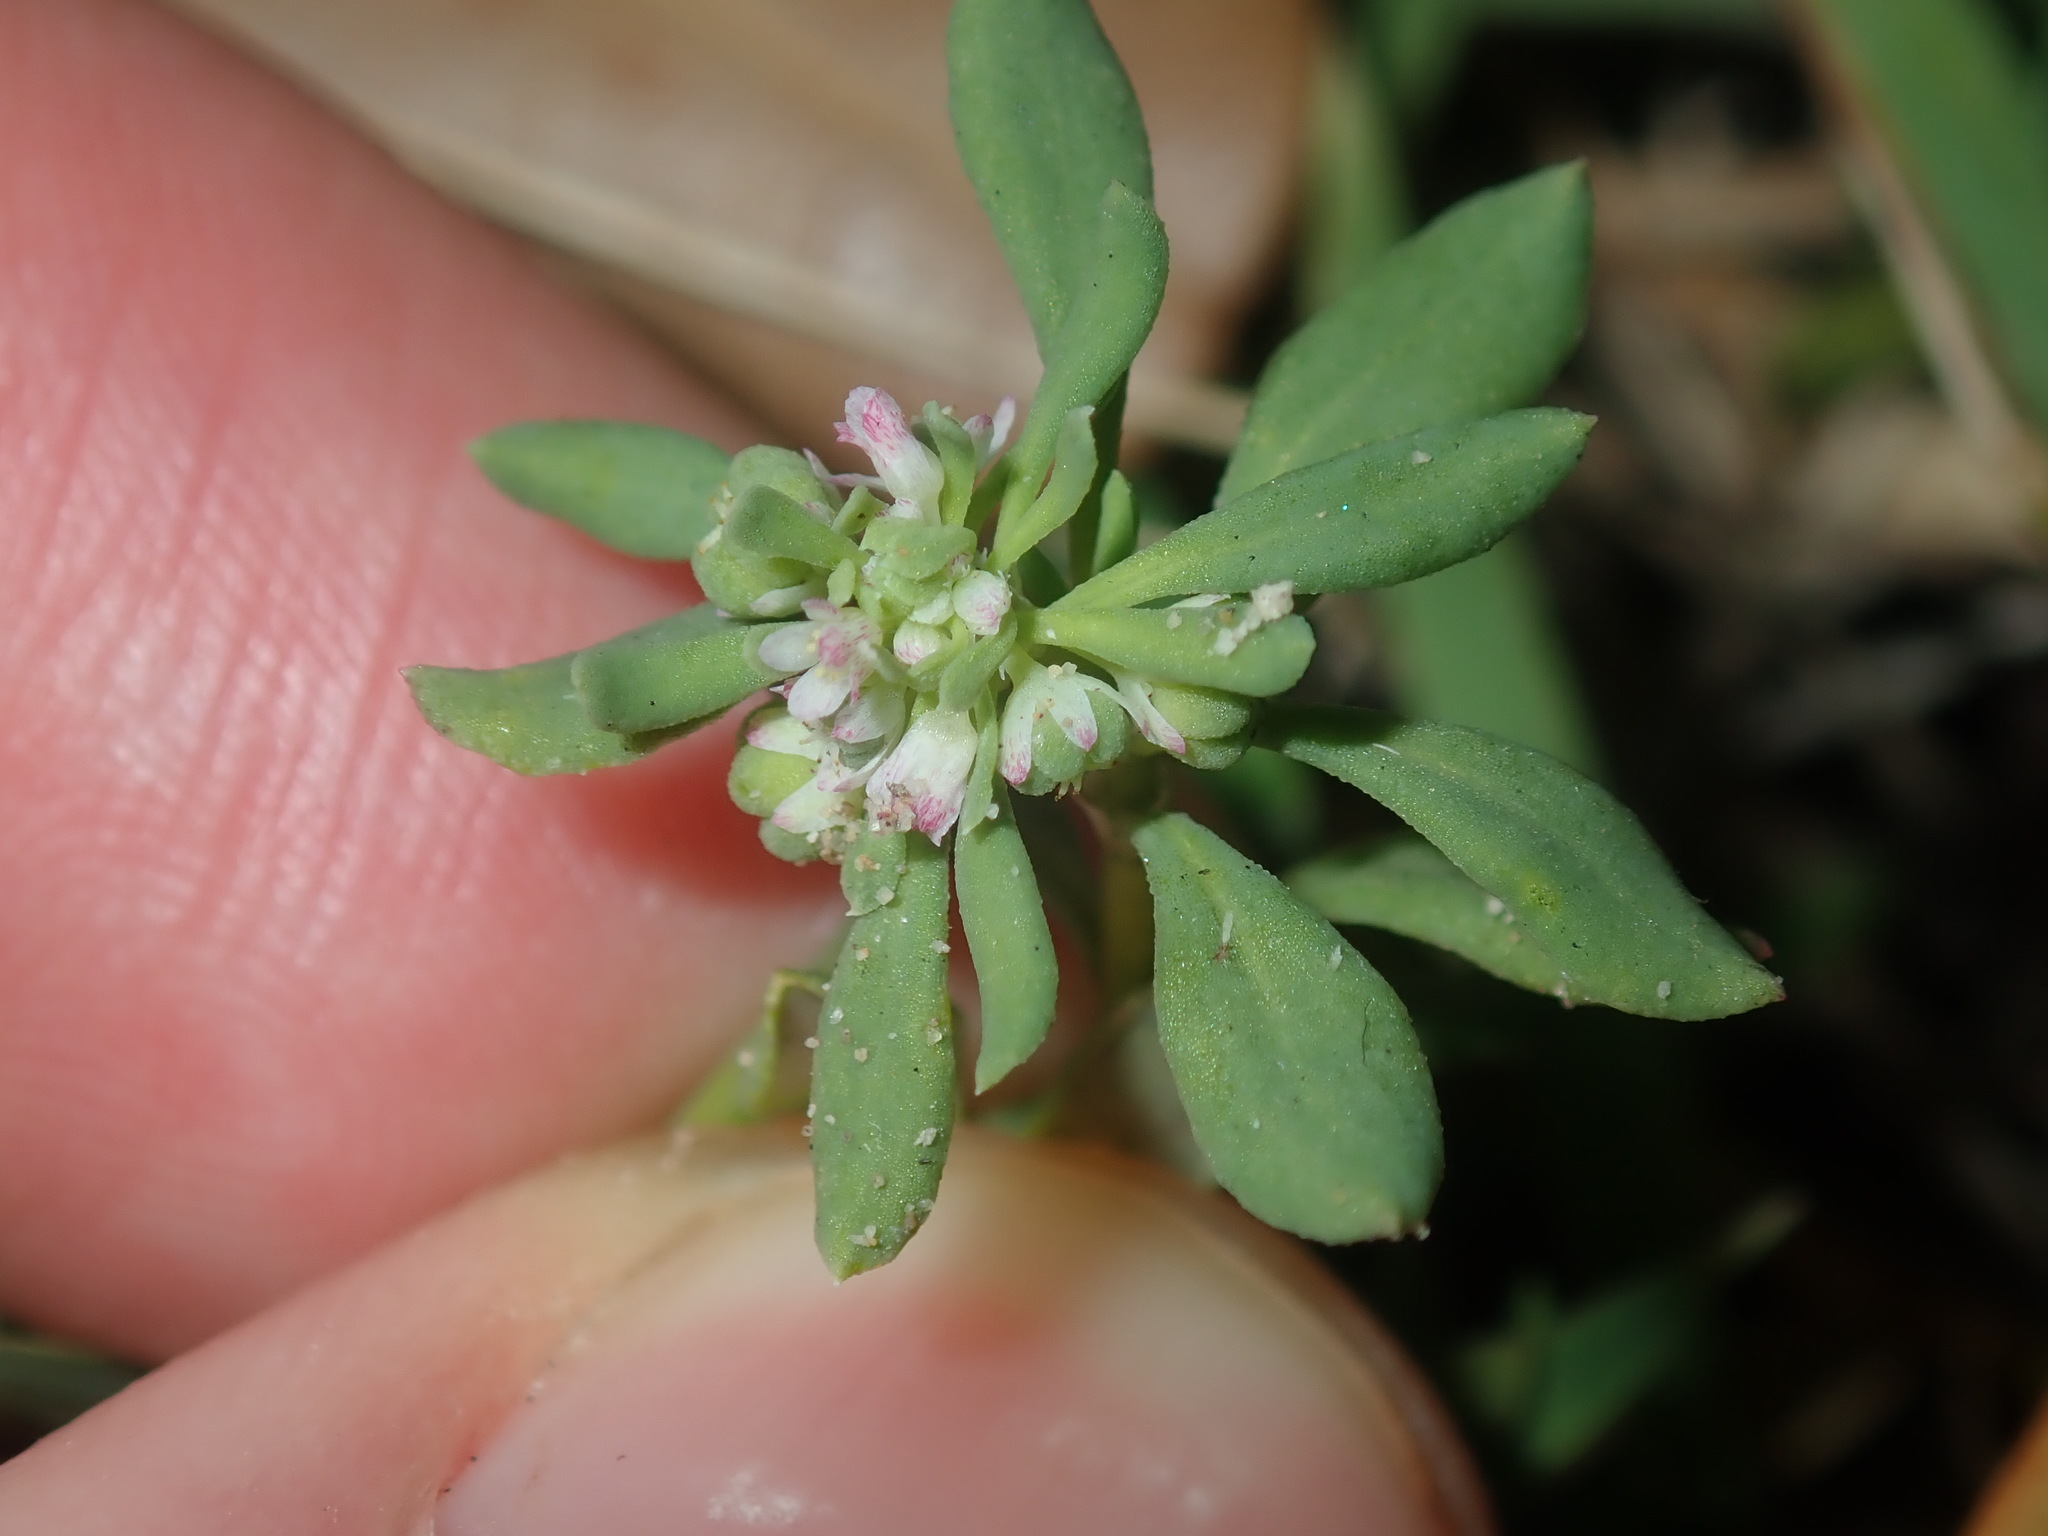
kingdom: Plantae
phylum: Tracheophyta
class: Magnoliopsida
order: Malpighiales
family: Phyllanthaceae
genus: Poranthera
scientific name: Poranthera microphylla
